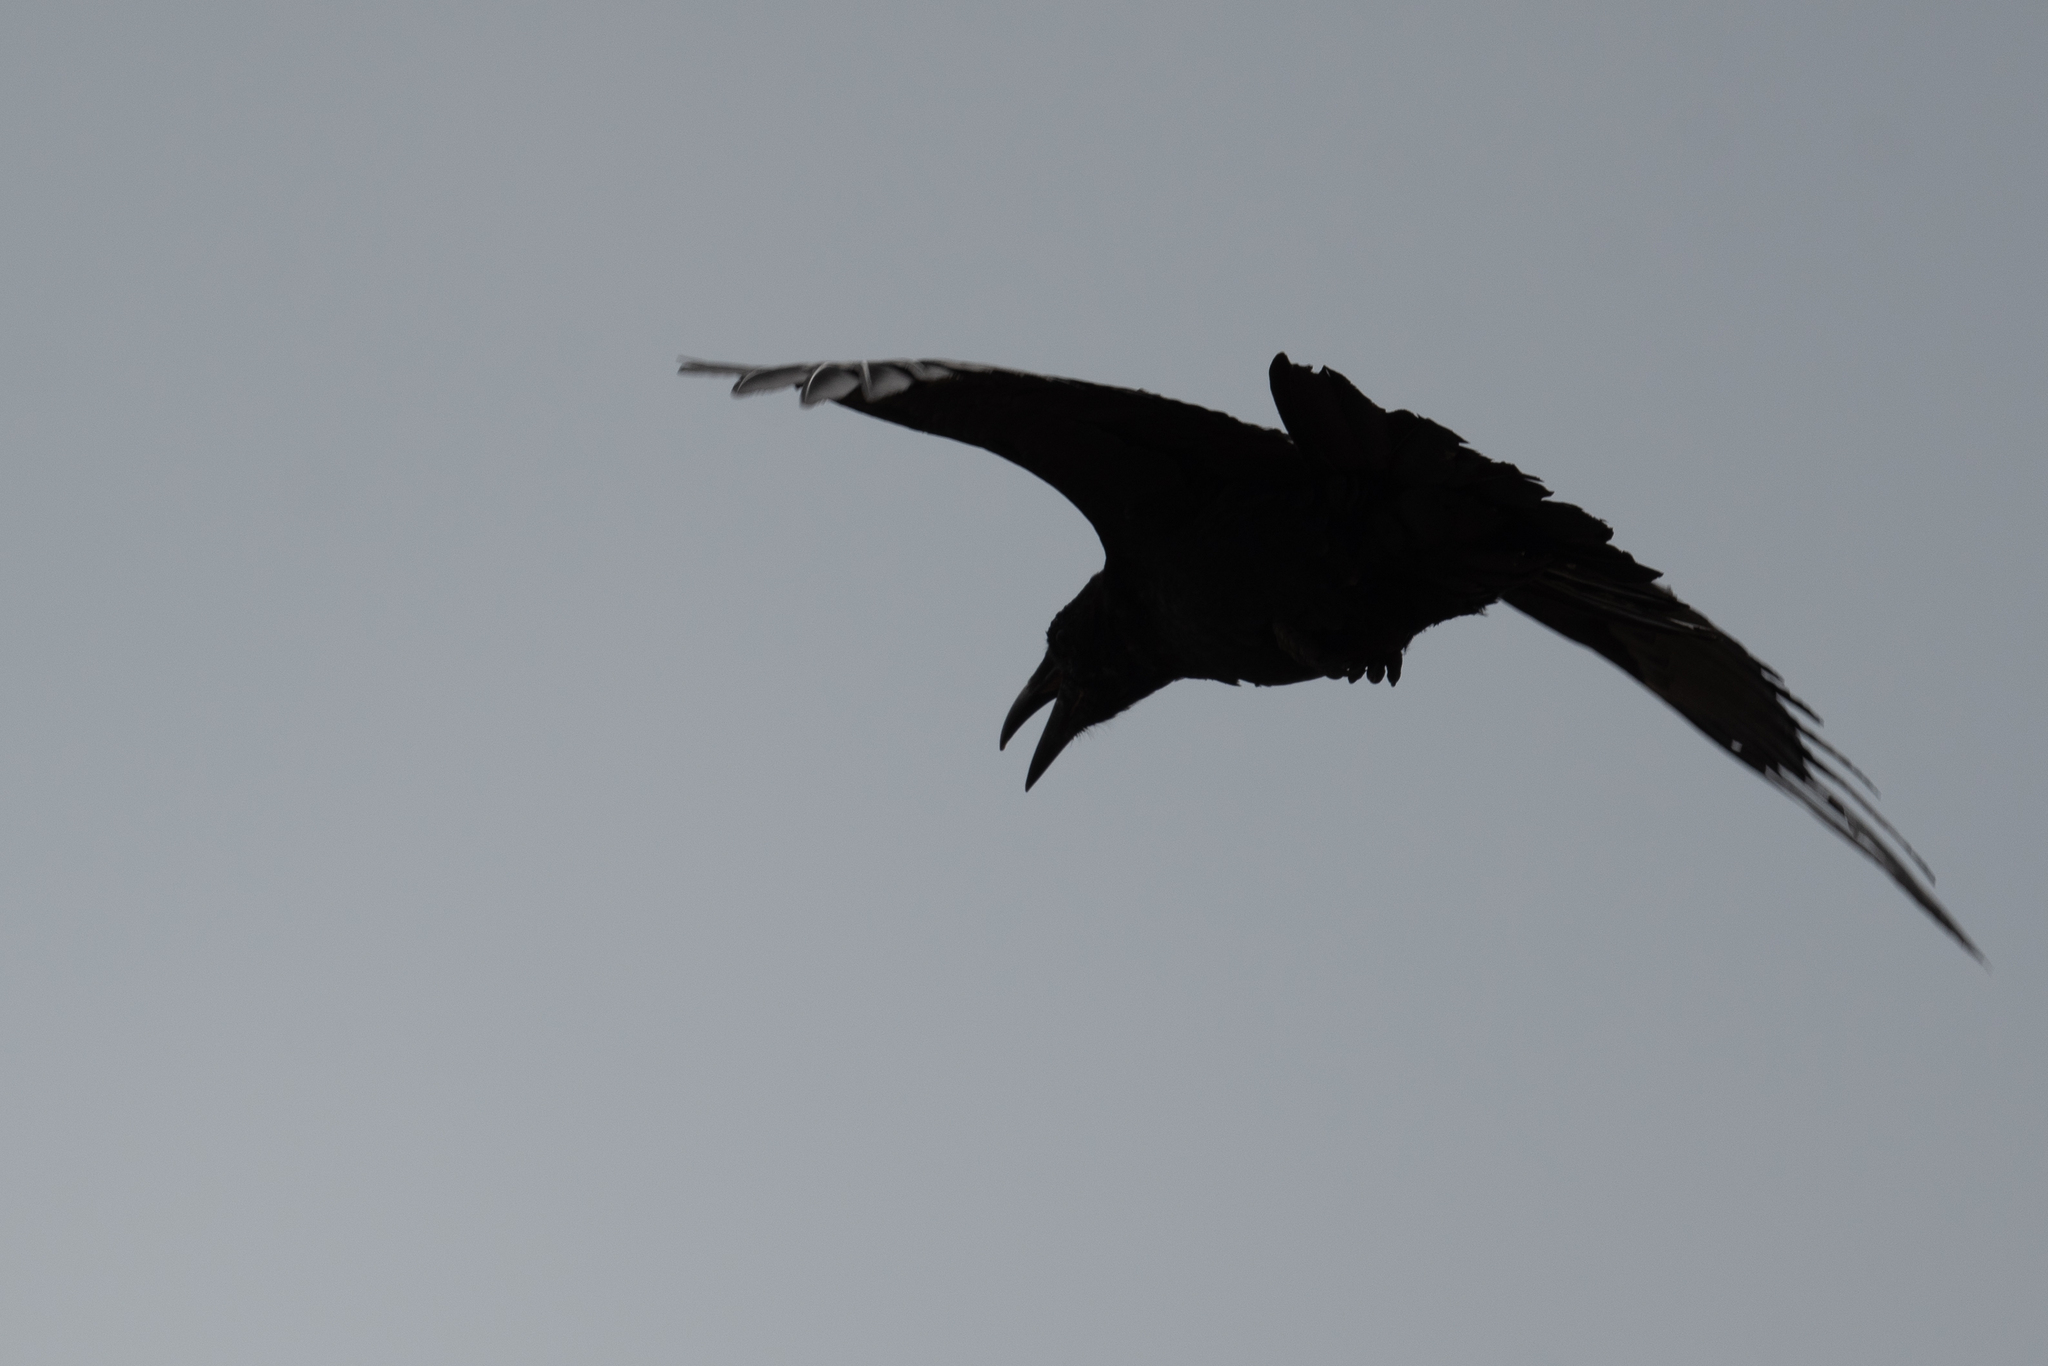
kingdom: Animalia
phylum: Chordata
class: Aves
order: Passeriformes
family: Corvidae
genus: Corvus
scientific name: Corvus corax
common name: Common raven
